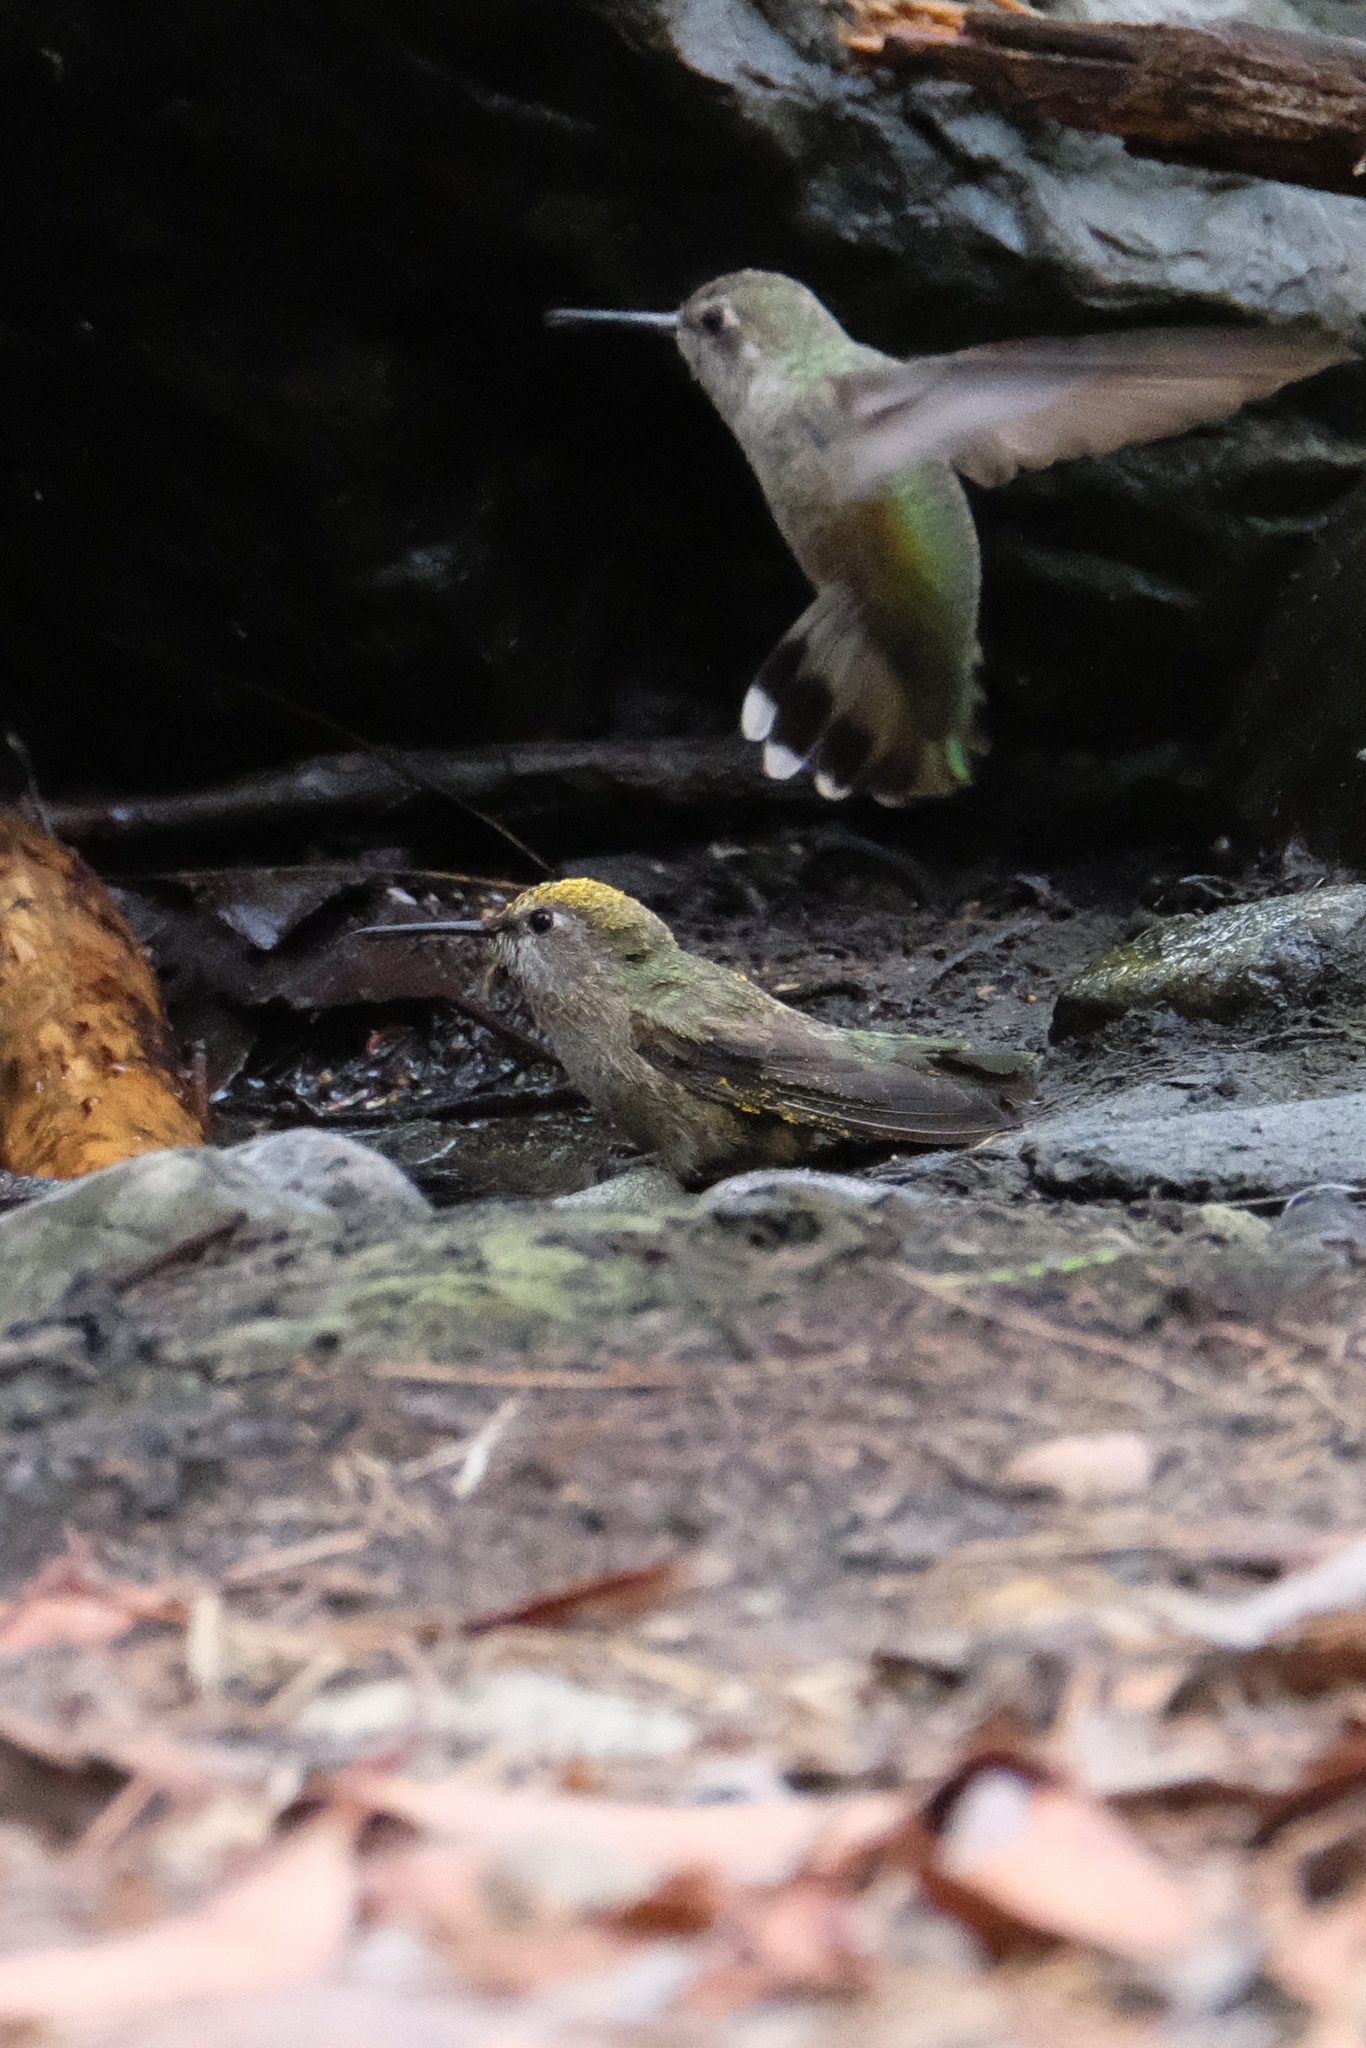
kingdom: Animalia
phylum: Chordata
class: Aves
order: Apodiformes
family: Trochilidae
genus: Calypte
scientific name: Calypte anna
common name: Anna's hummingbird
